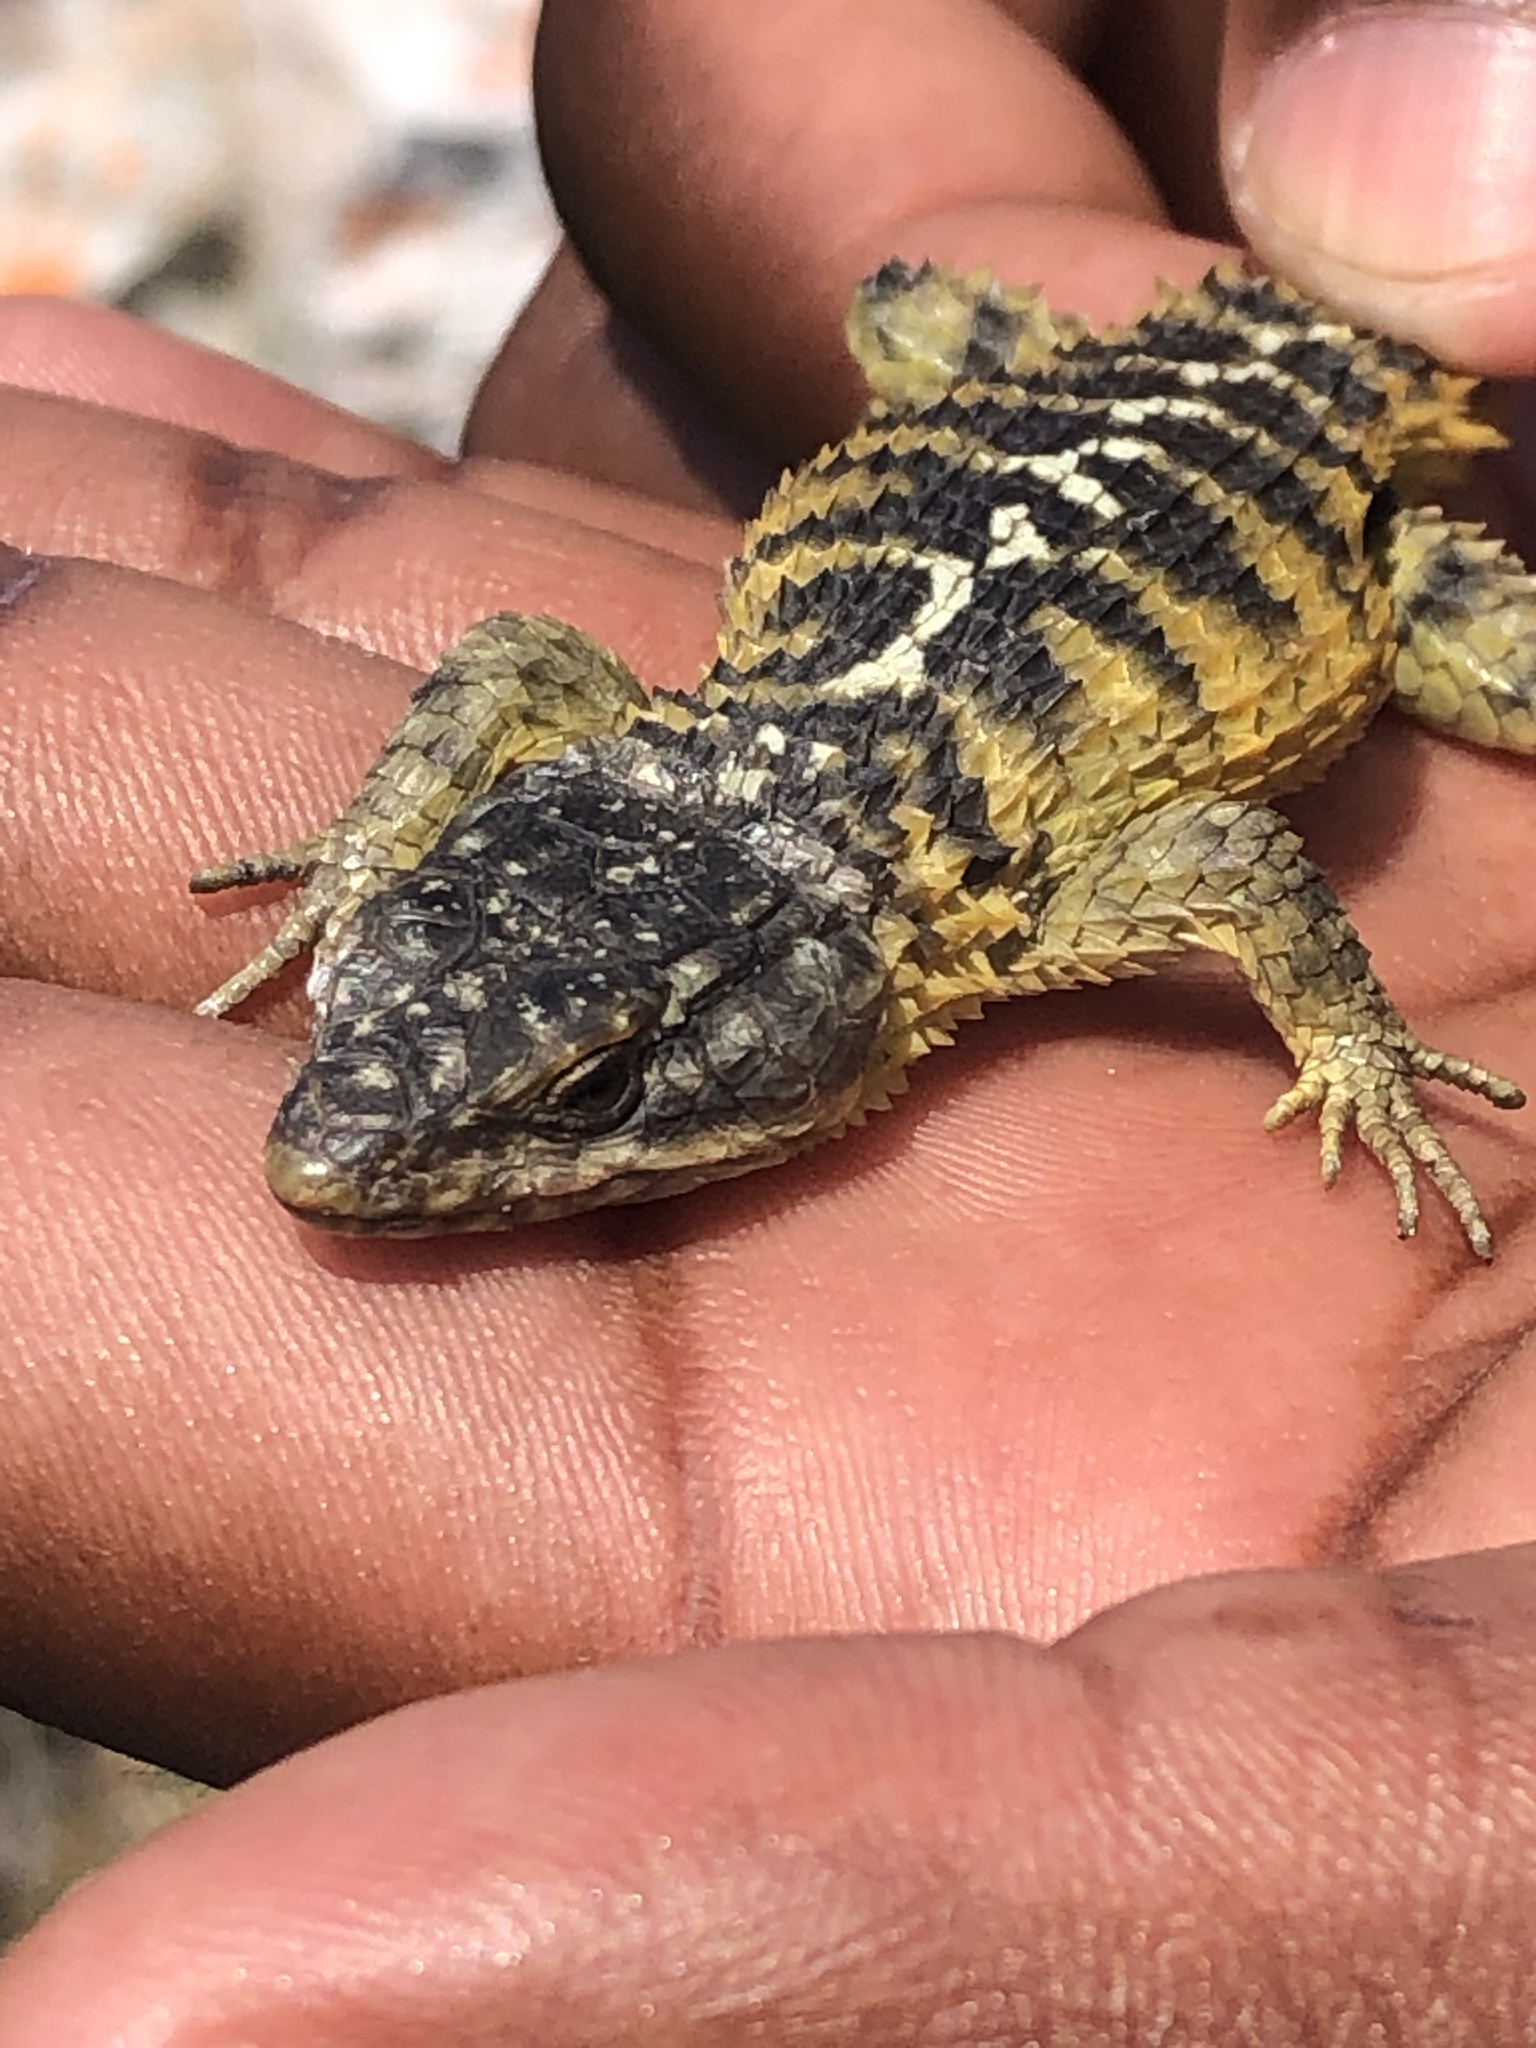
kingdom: Animalia
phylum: Chordata
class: Squamata
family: Cordylidae
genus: Cordylus
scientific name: Cordylus cordylus
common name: Cape girdled lizard
